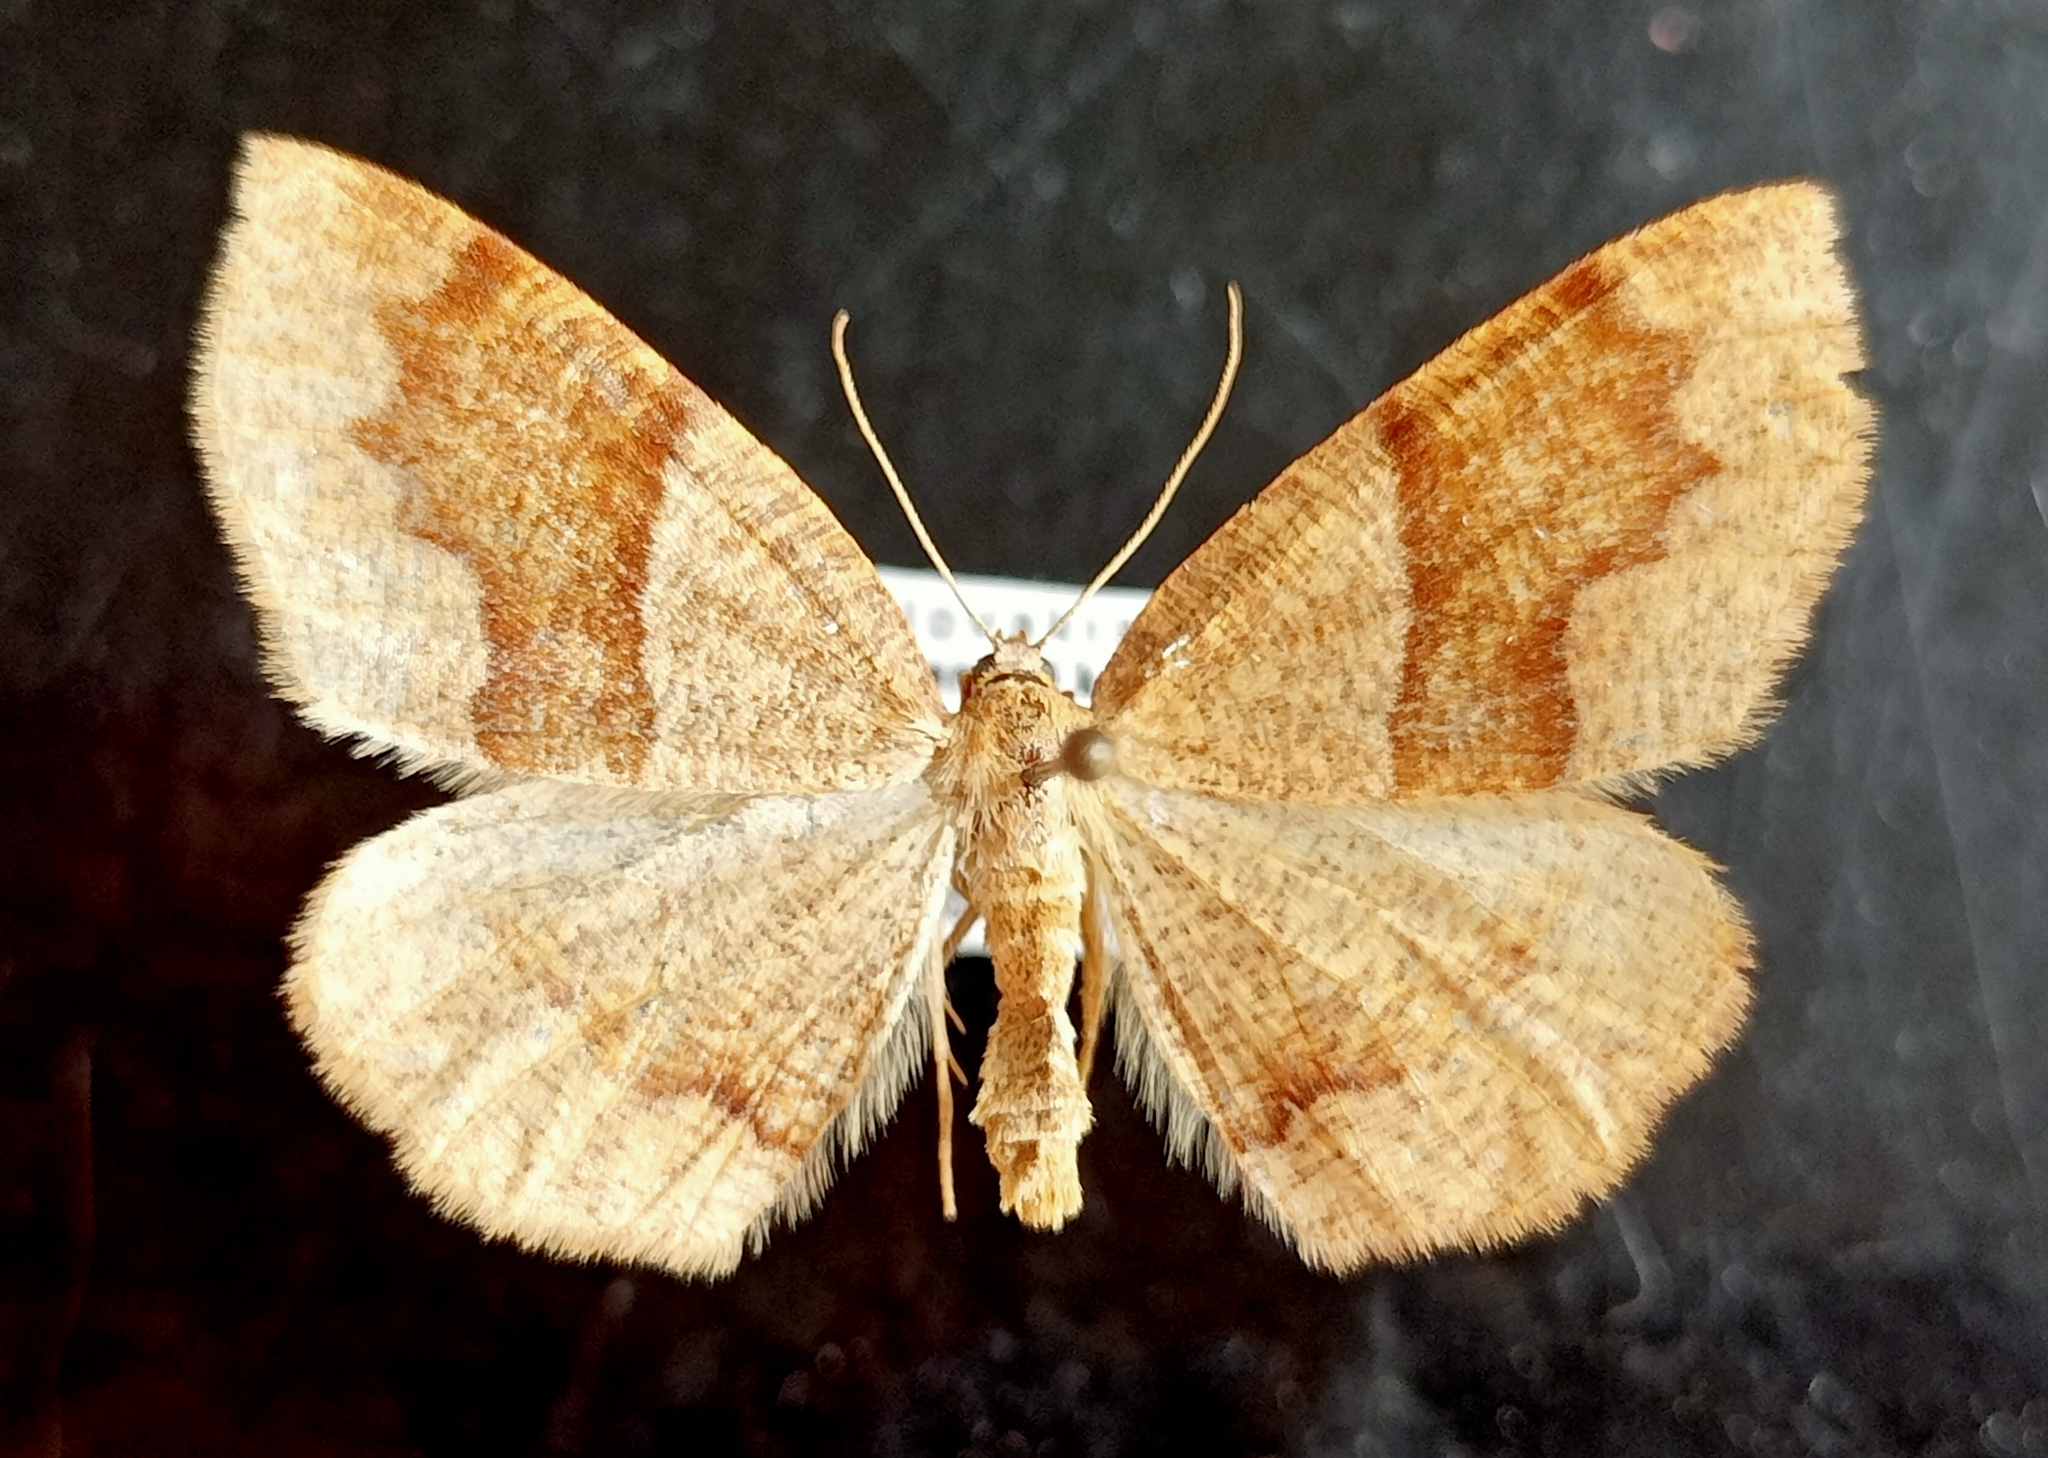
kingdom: Animalia
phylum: Arthropoda
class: Insecta
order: Lepidoptera
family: Geometridae
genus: Plagodis
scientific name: Plagodis pulveraria
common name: Barred umber
